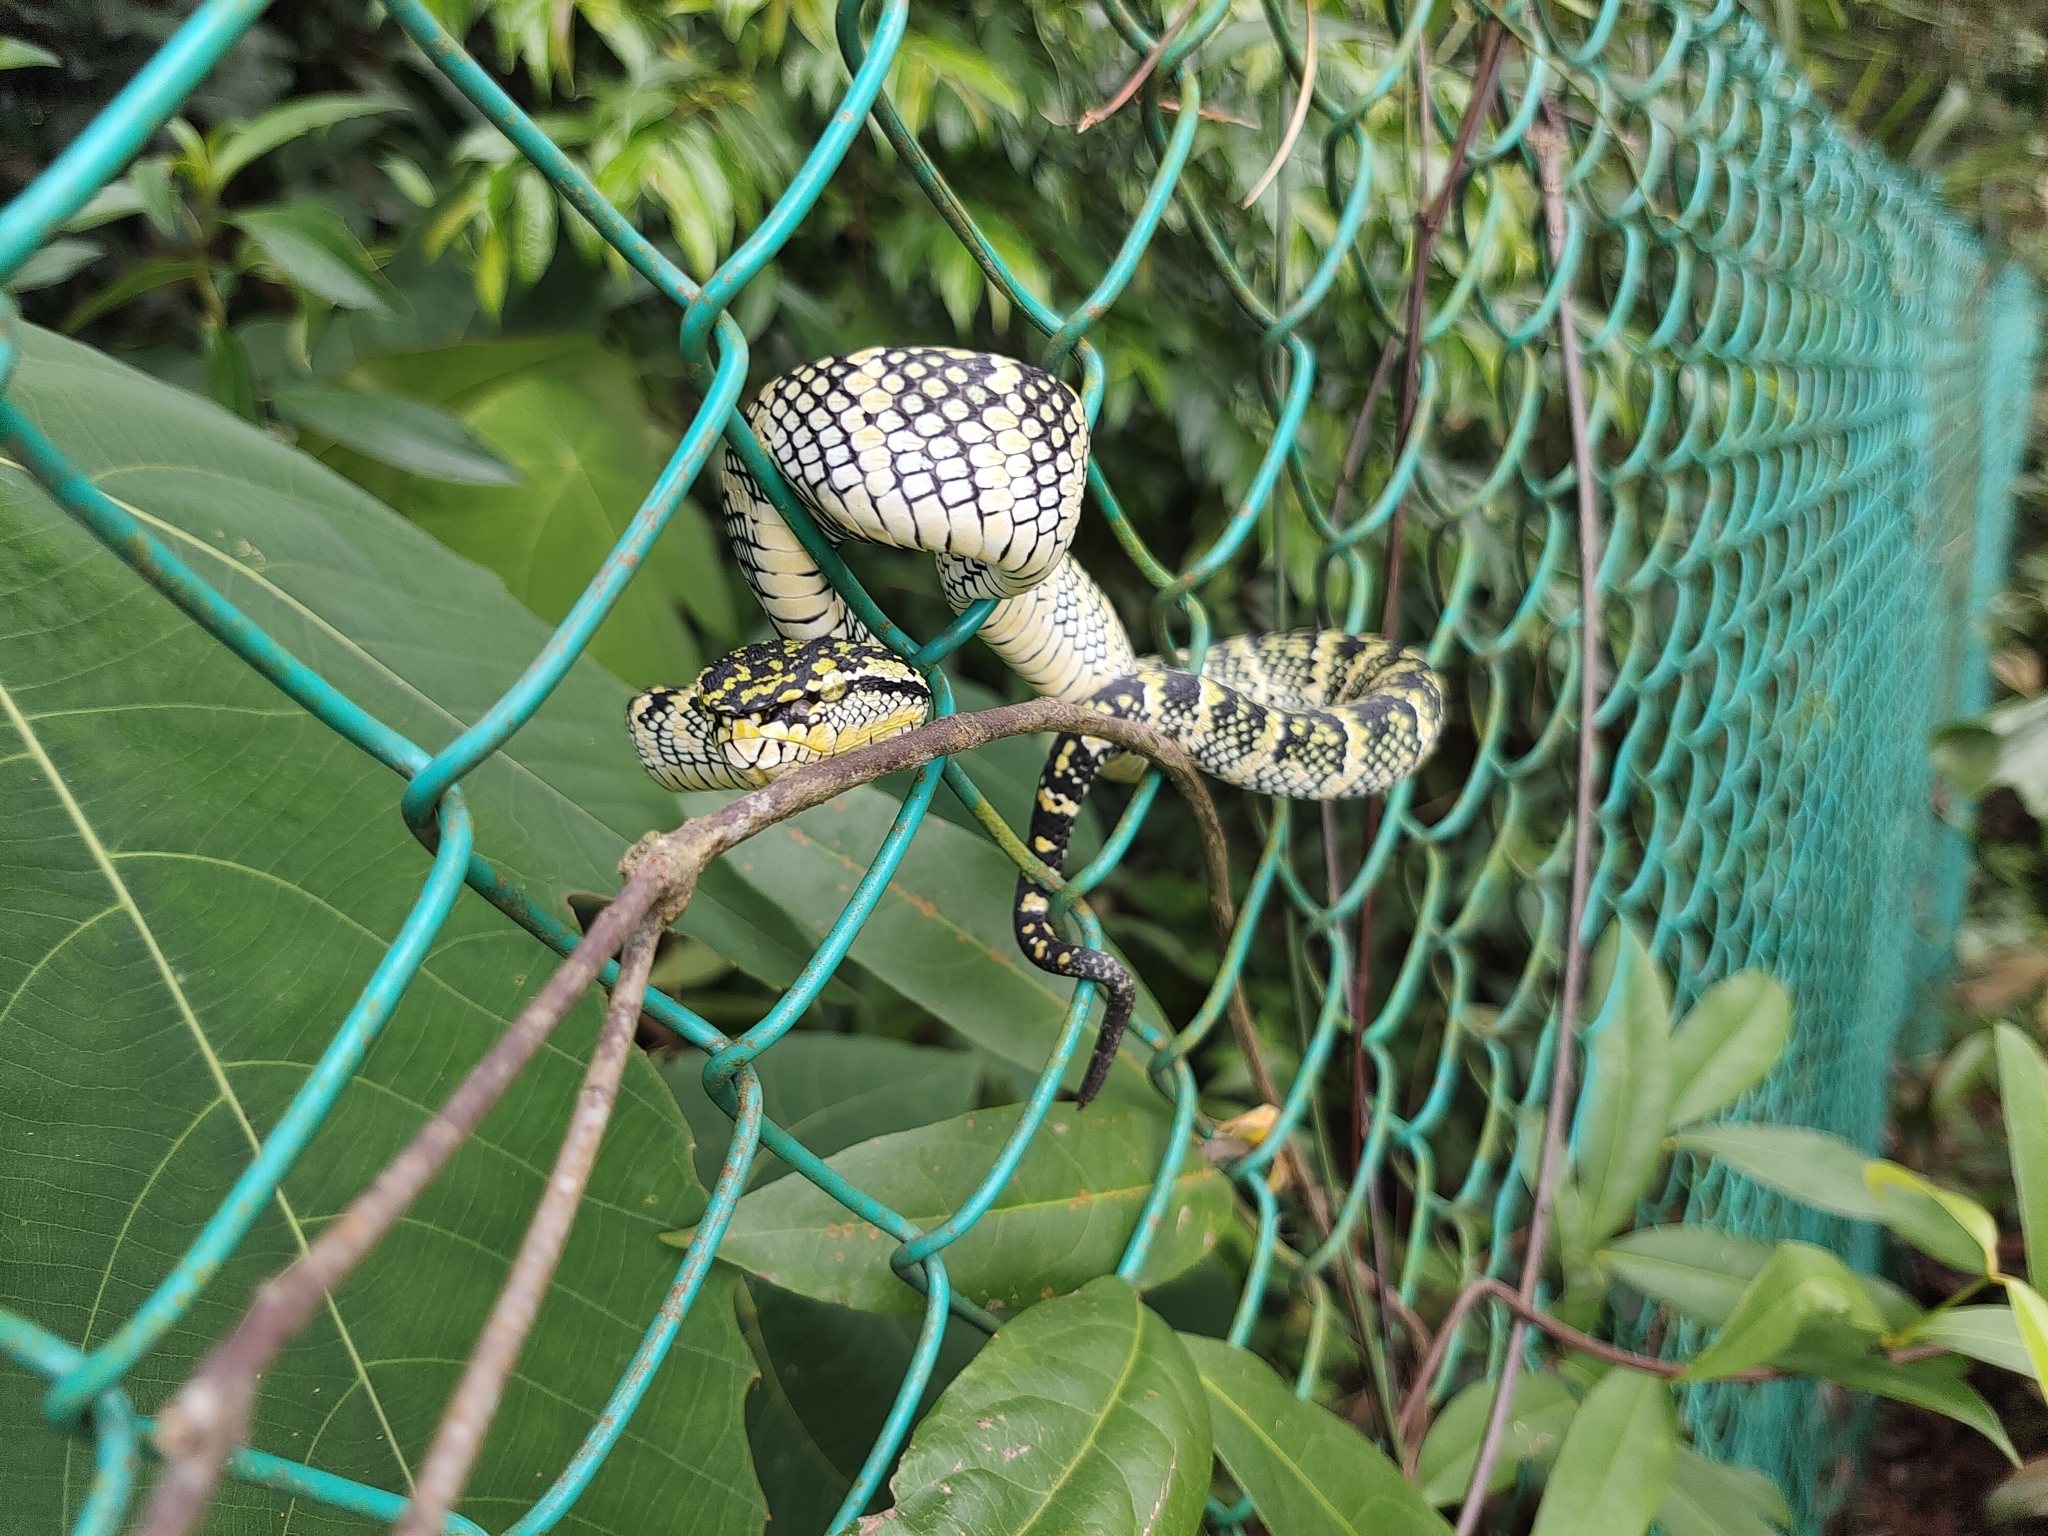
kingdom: Animalia
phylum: Chordata
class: Squamata
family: Viperidae
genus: Tropidolaemus
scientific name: Tropidolaemus wagleri
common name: Wagler's palm viper
